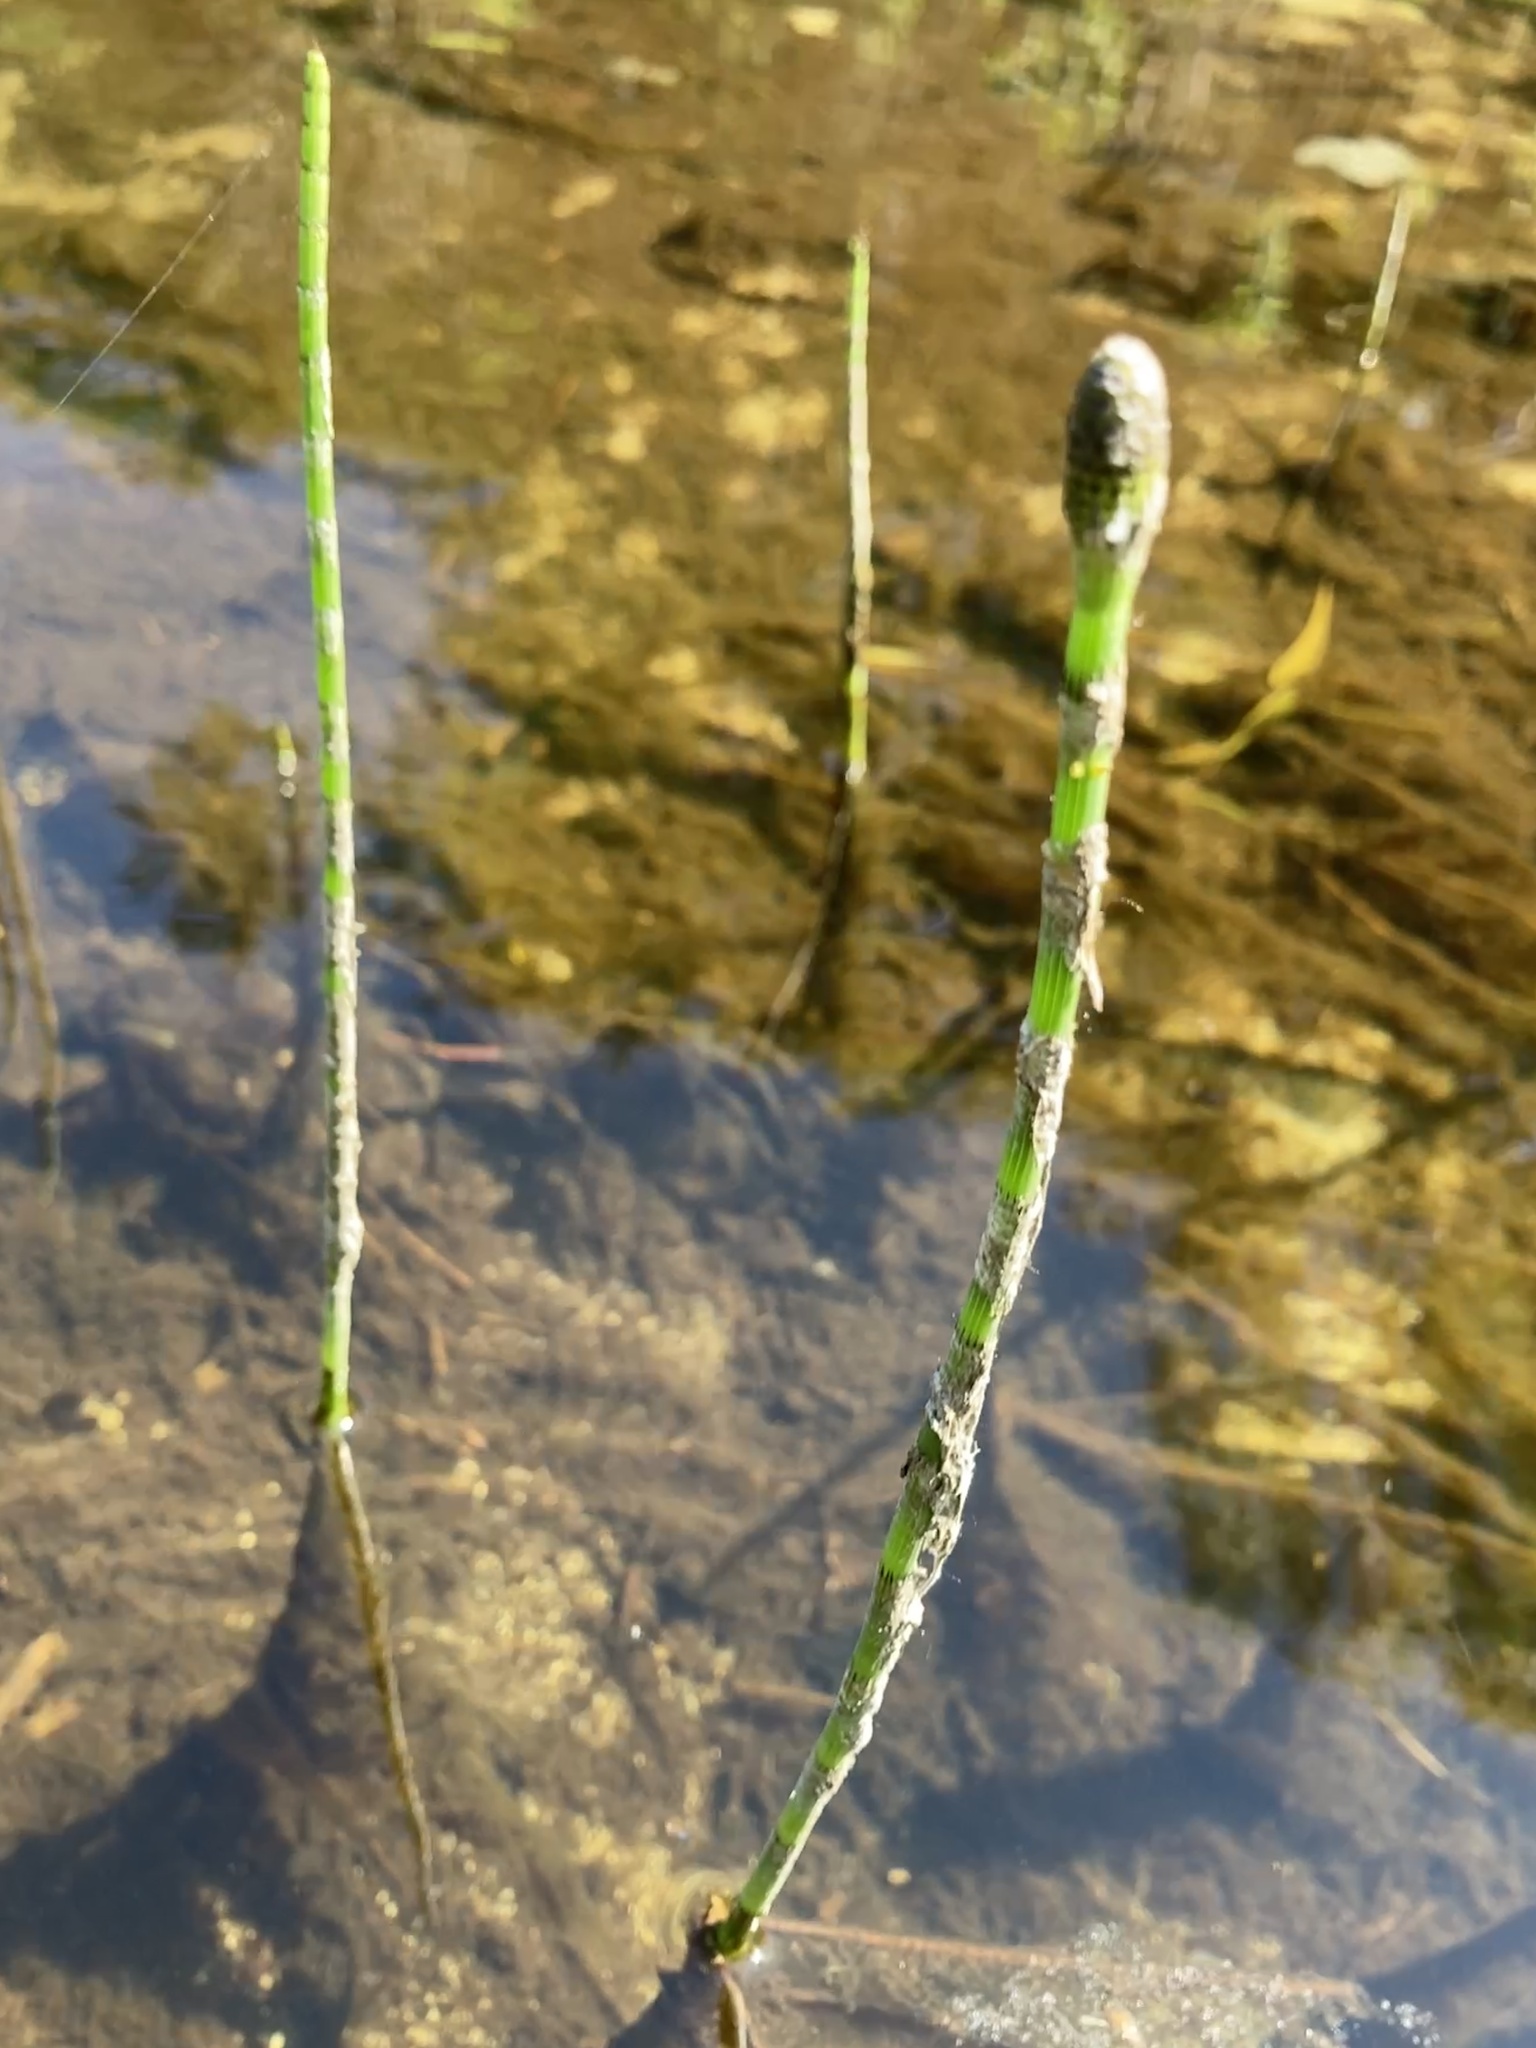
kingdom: Plantae
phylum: Tracheophyta
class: Polypodiopsida
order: Equisetales
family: Equisetaceae
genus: Equisetum
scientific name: Equisetum fluviatile
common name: Water horsetail
